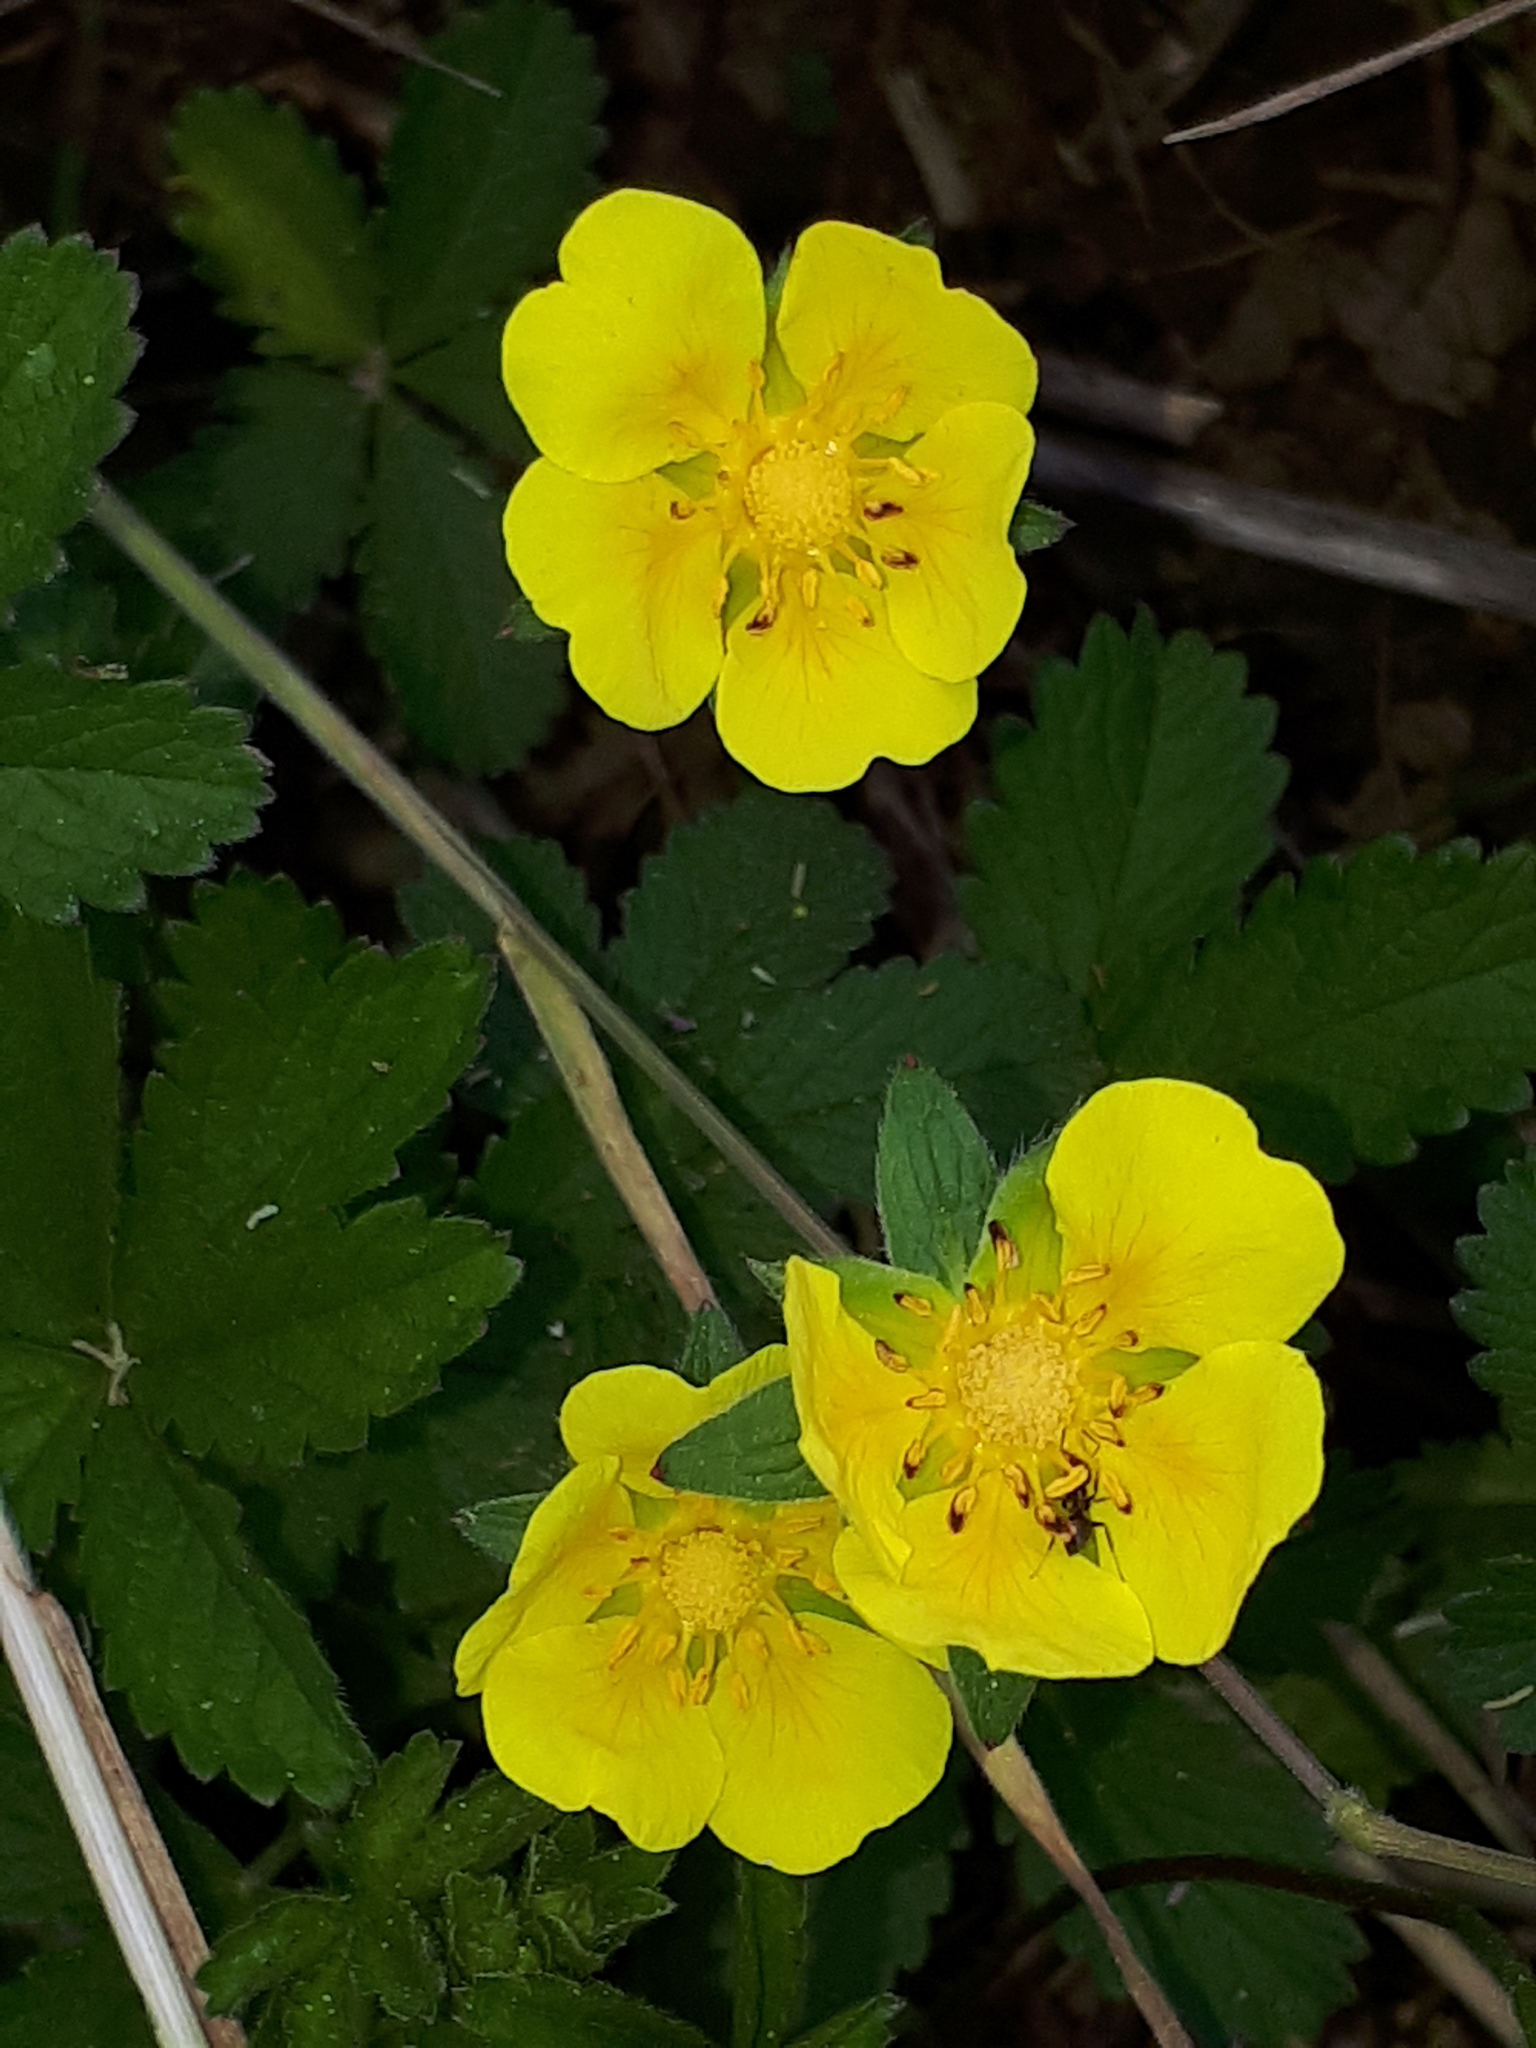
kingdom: Plantae
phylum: Tracheophyta
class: Magnoliopsida
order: Rosales
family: Rosaceae
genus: Potentilla
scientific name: Potentilla reptans
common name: Creeping cinquefoil
